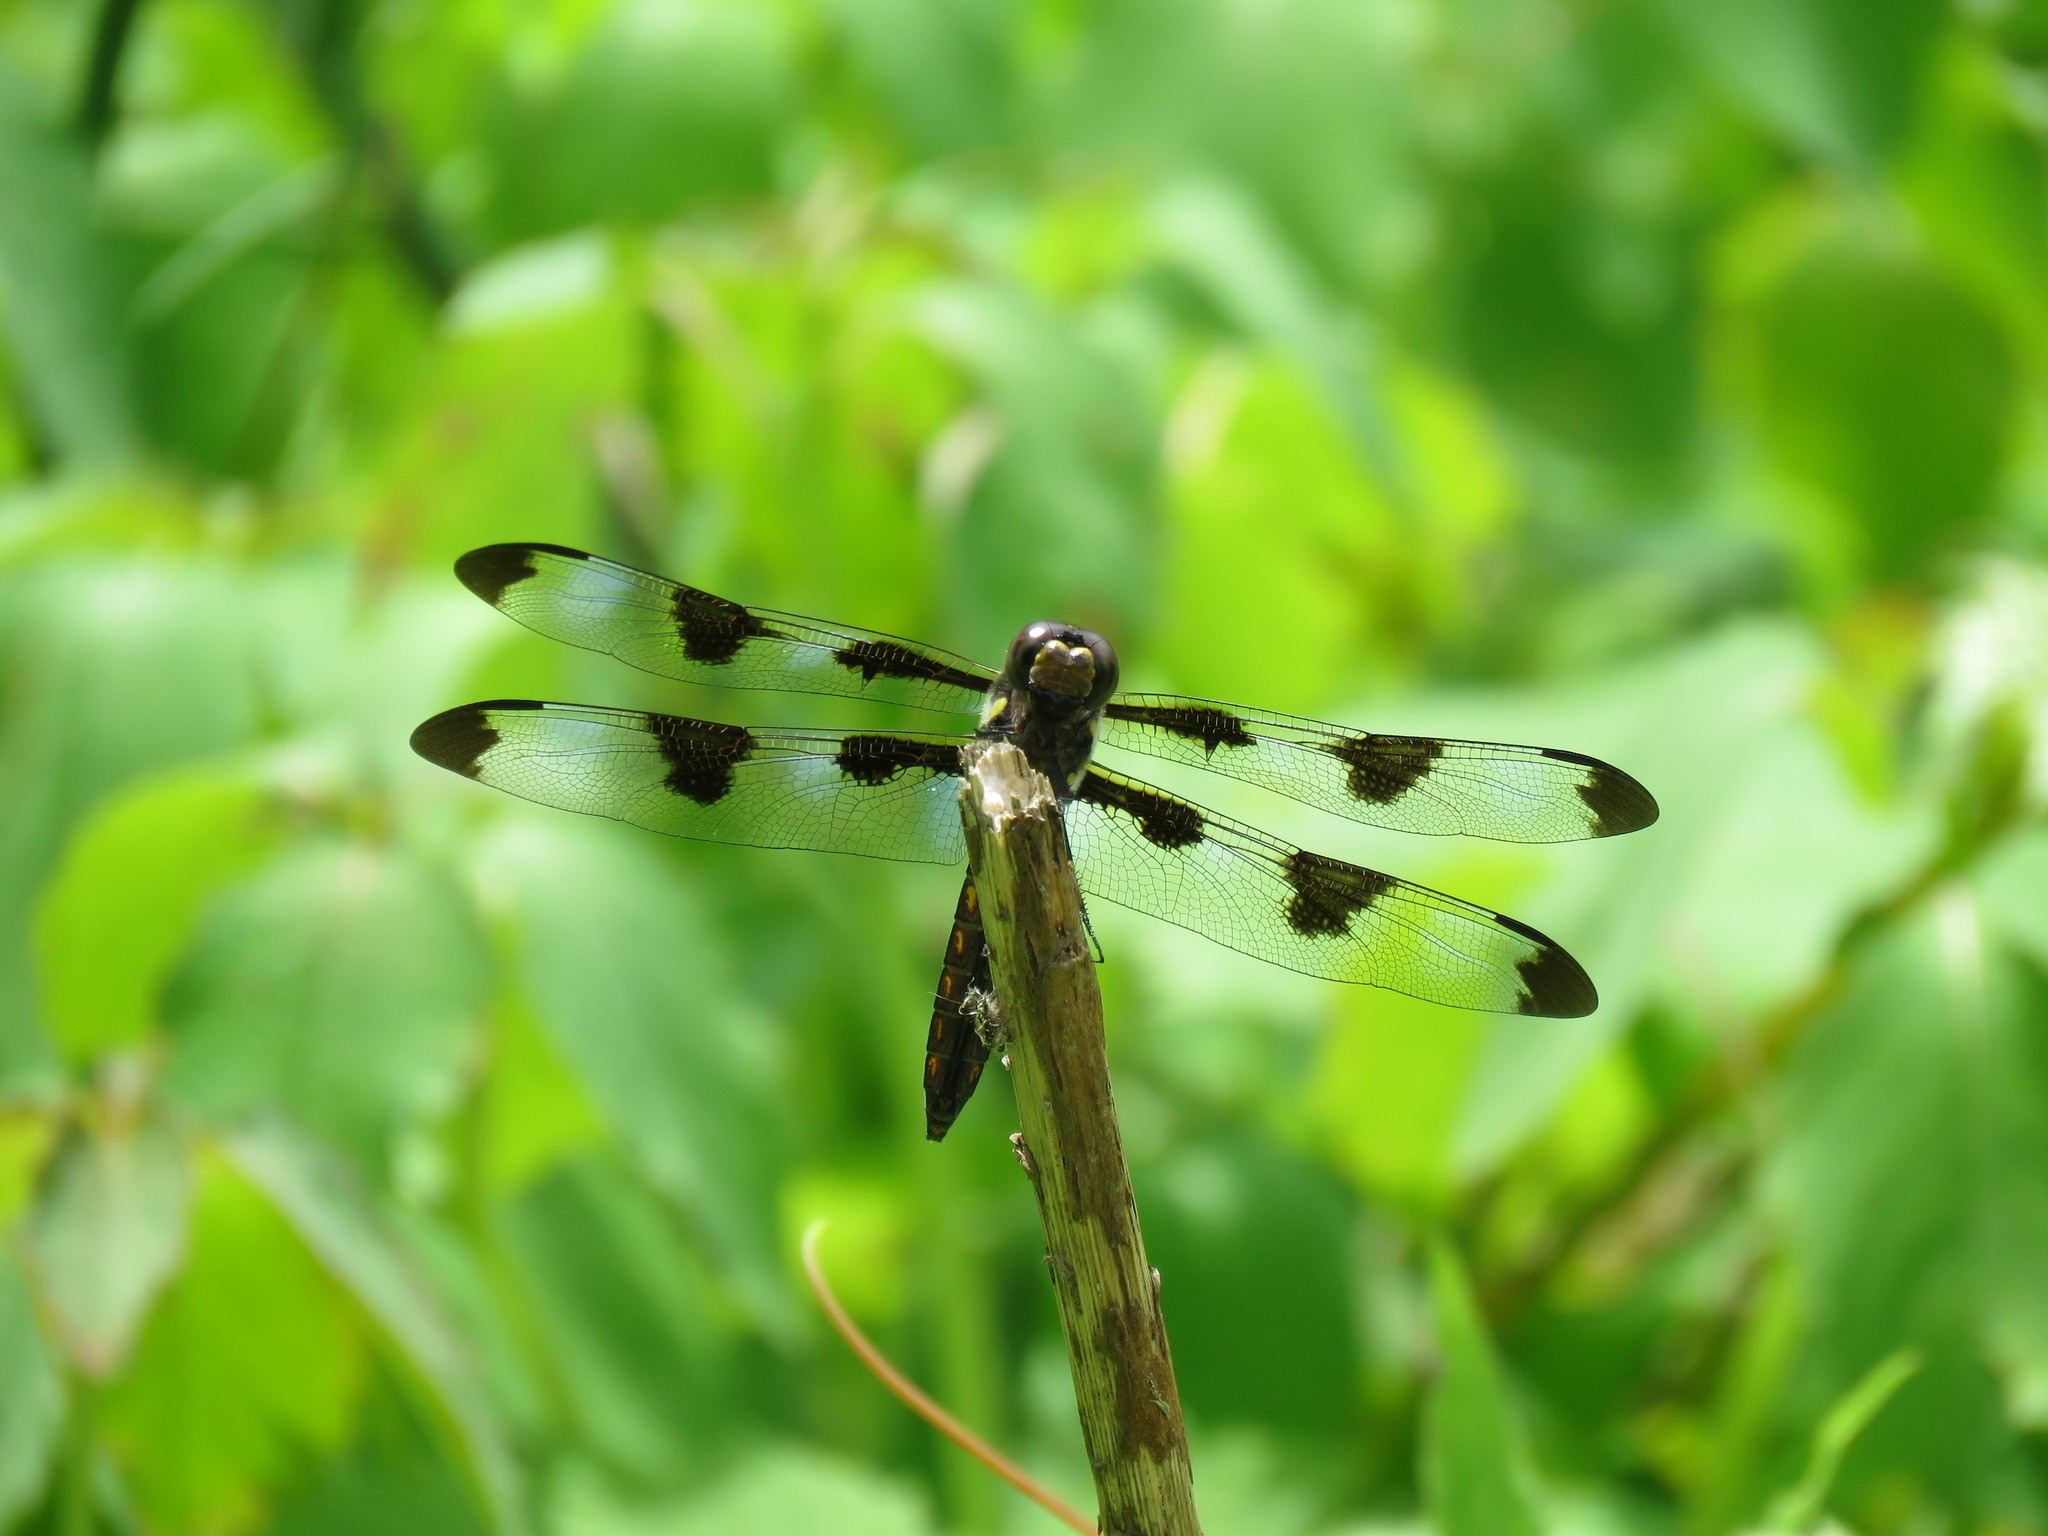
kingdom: Animalia
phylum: Arthropoda
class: Insecta
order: Odonata
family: Libellulidae
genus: Libellula
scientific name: Libellula pulchella
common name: Twelve-spotted skimmer
